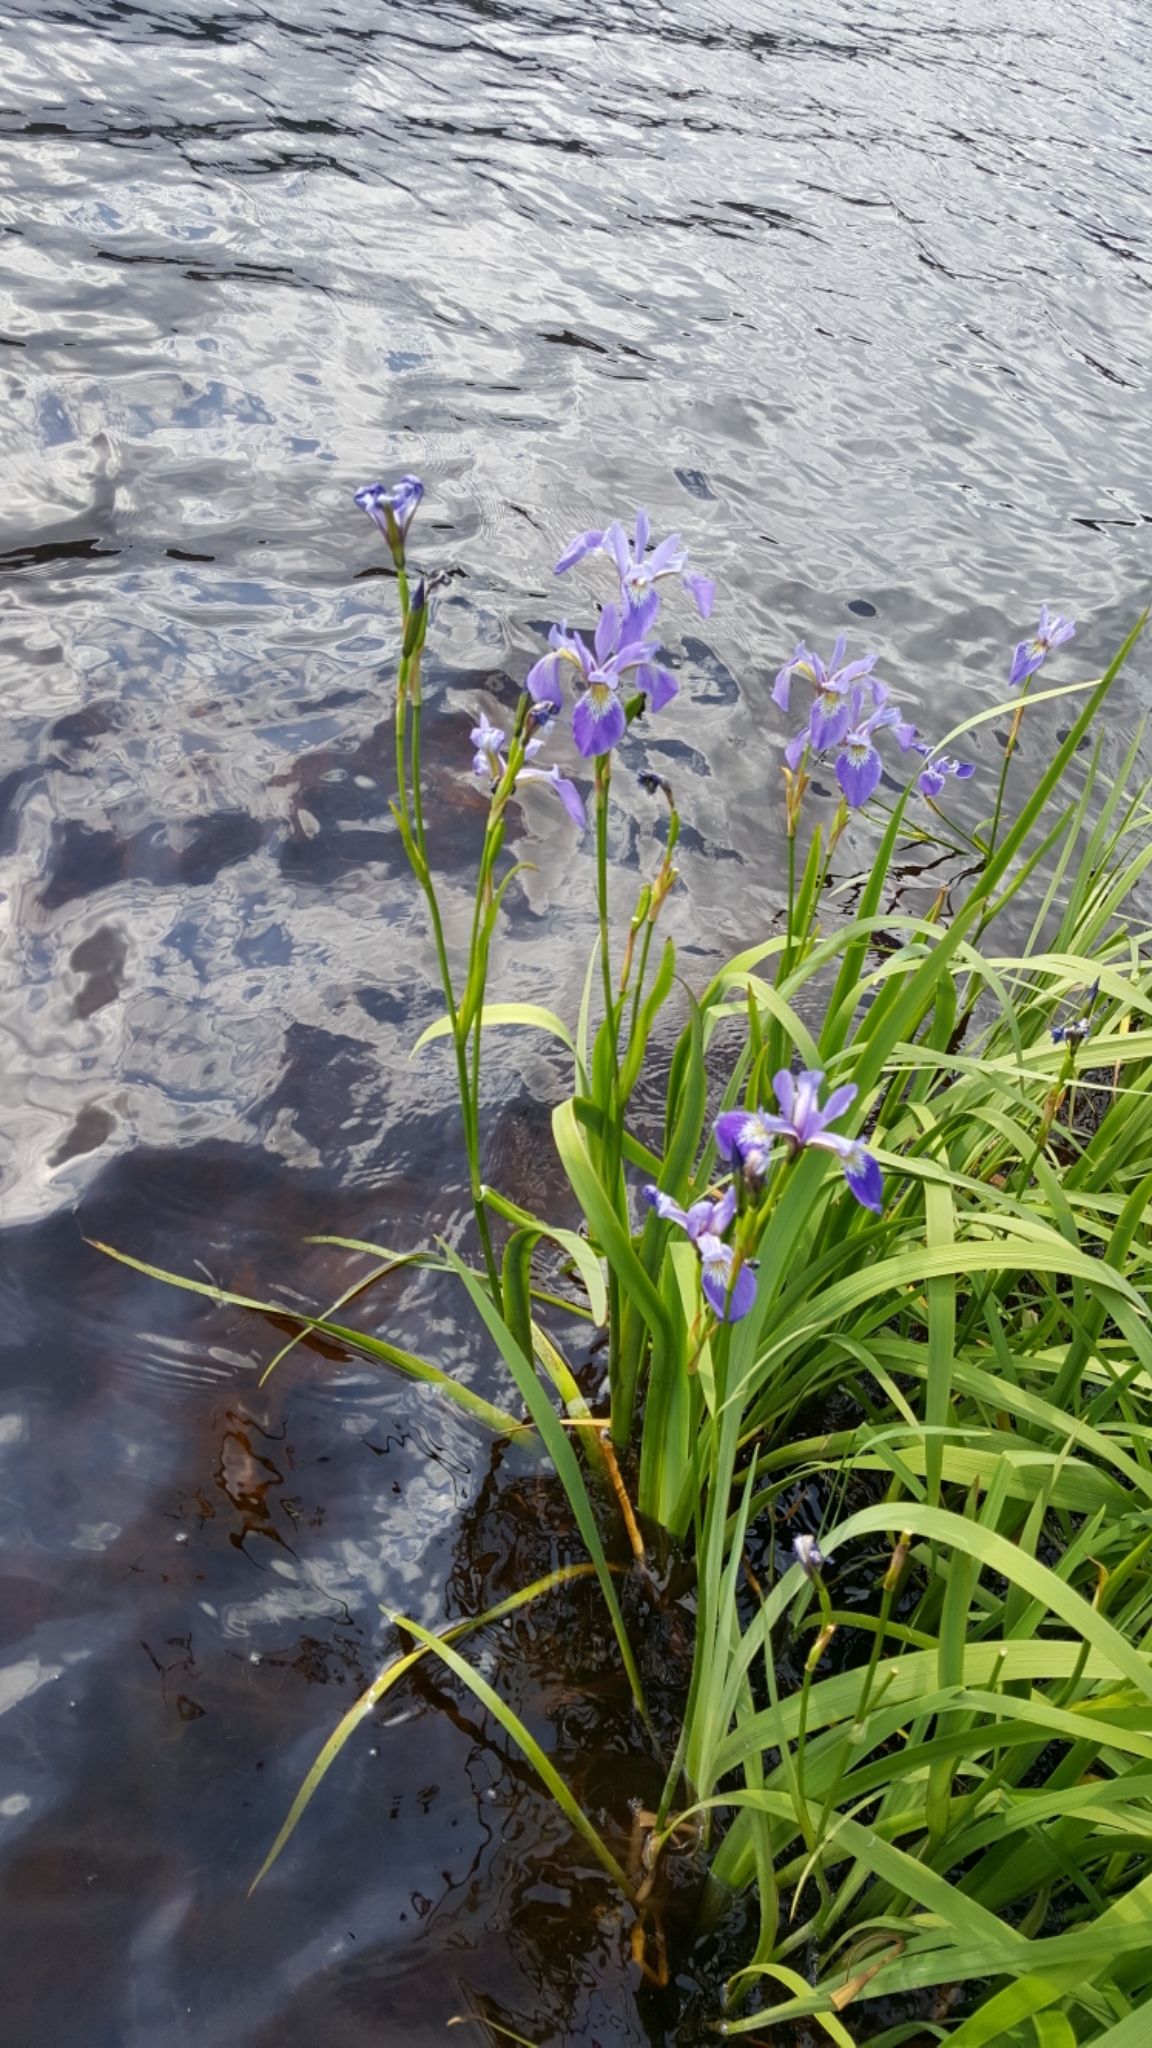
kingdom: Plantae
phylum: Tracheophyta
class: Liliopsida
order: Asparagales
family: Iridaceae
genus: Iris
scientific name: Iris versicolor
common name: Purple iris
